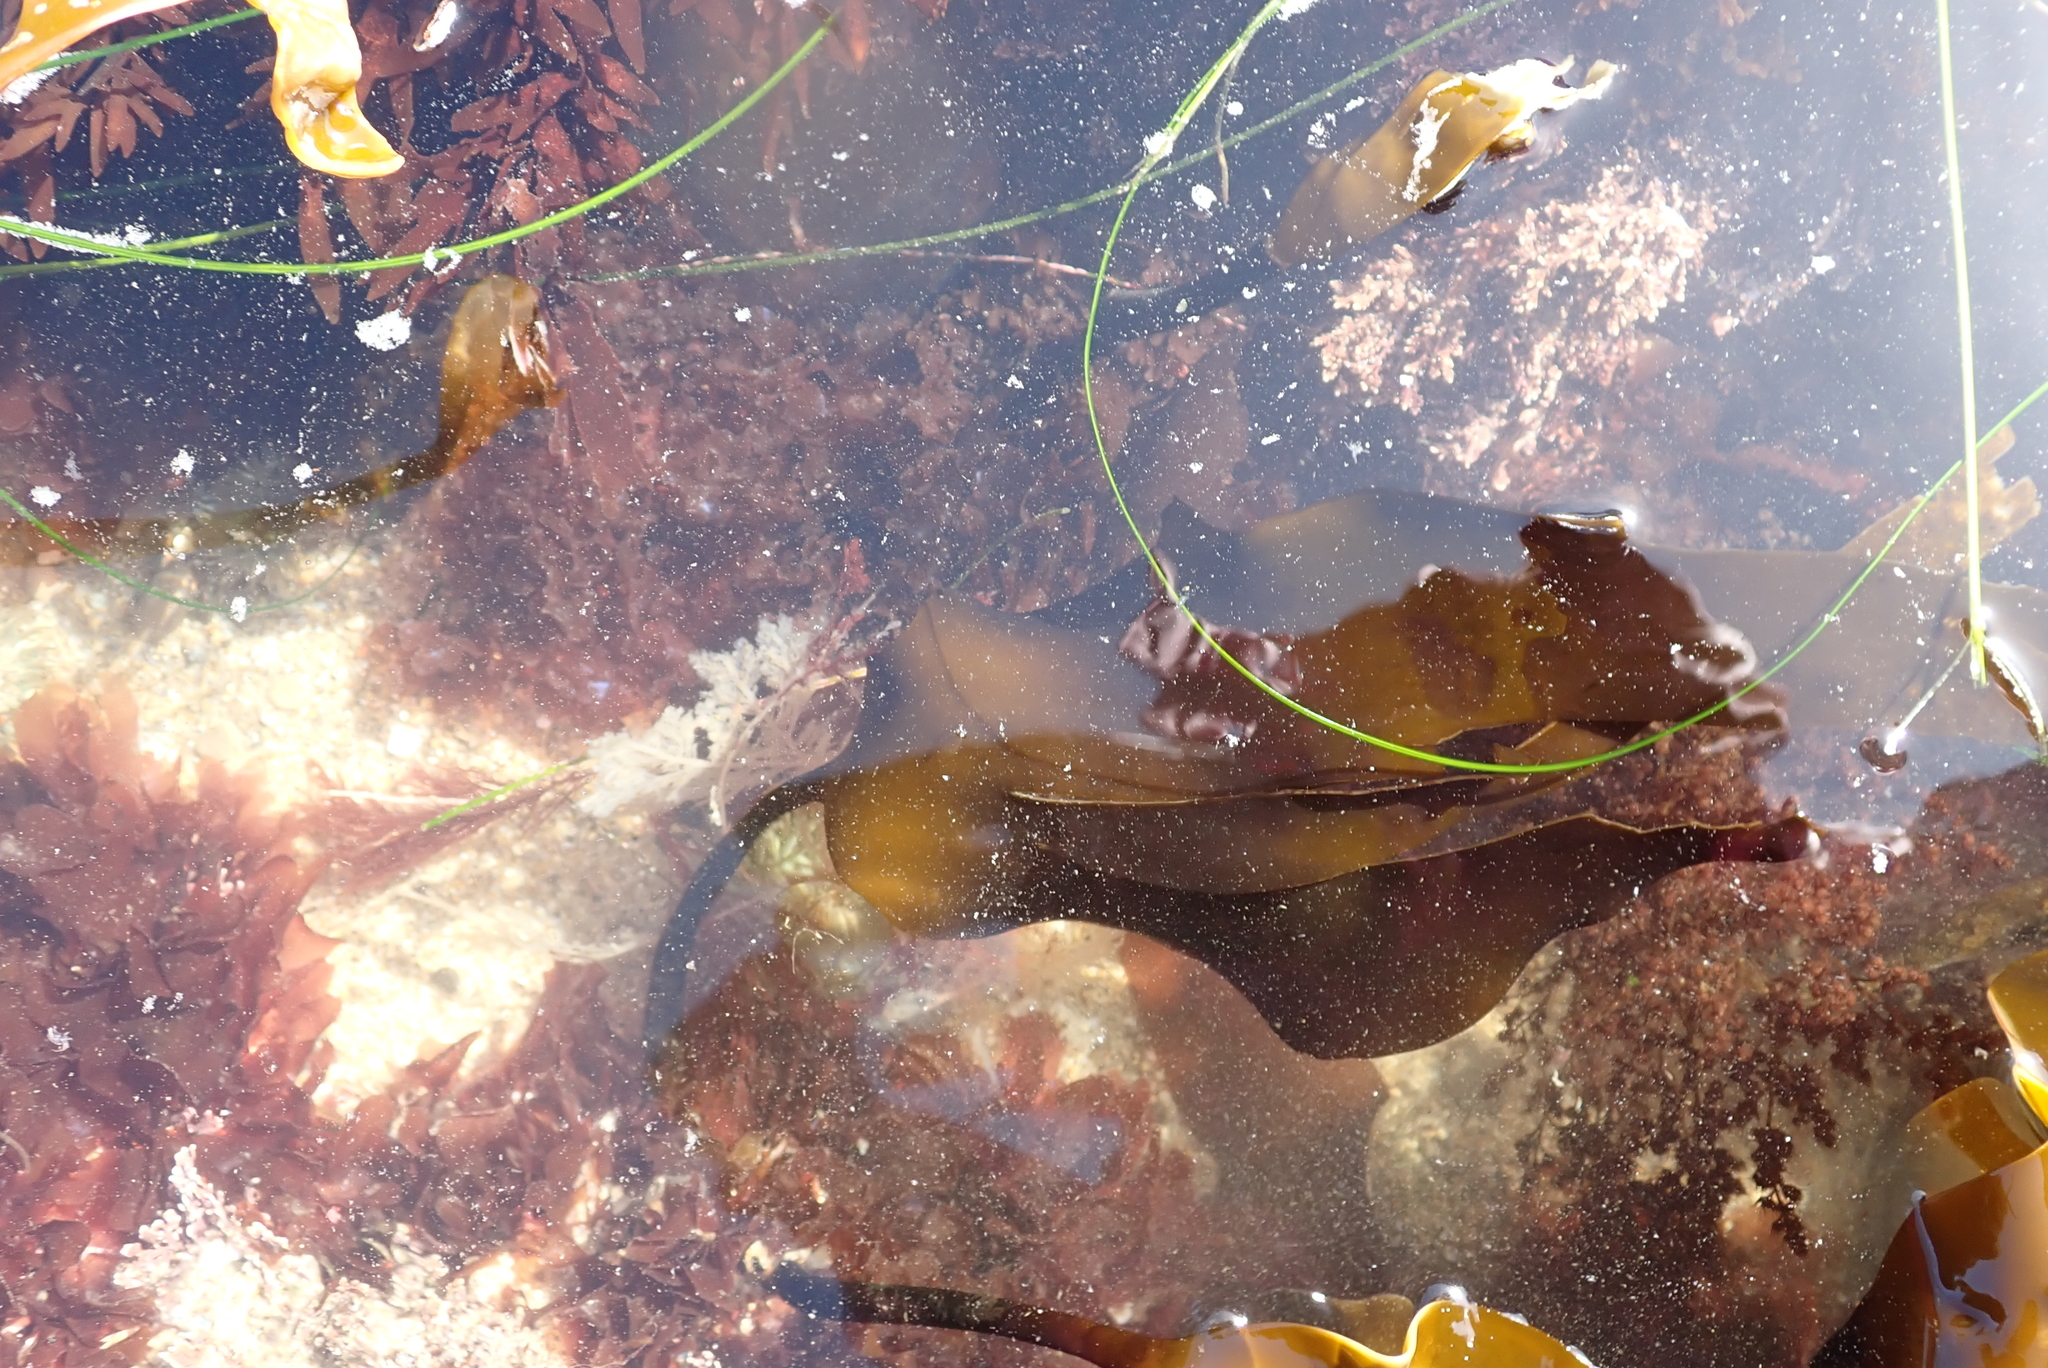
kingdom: Chromista
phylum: Ochrophyta
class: Phaeophyceae
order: Laminariales
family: Laminariaceae
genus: Laminaria
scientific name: Laminaria setchellii
